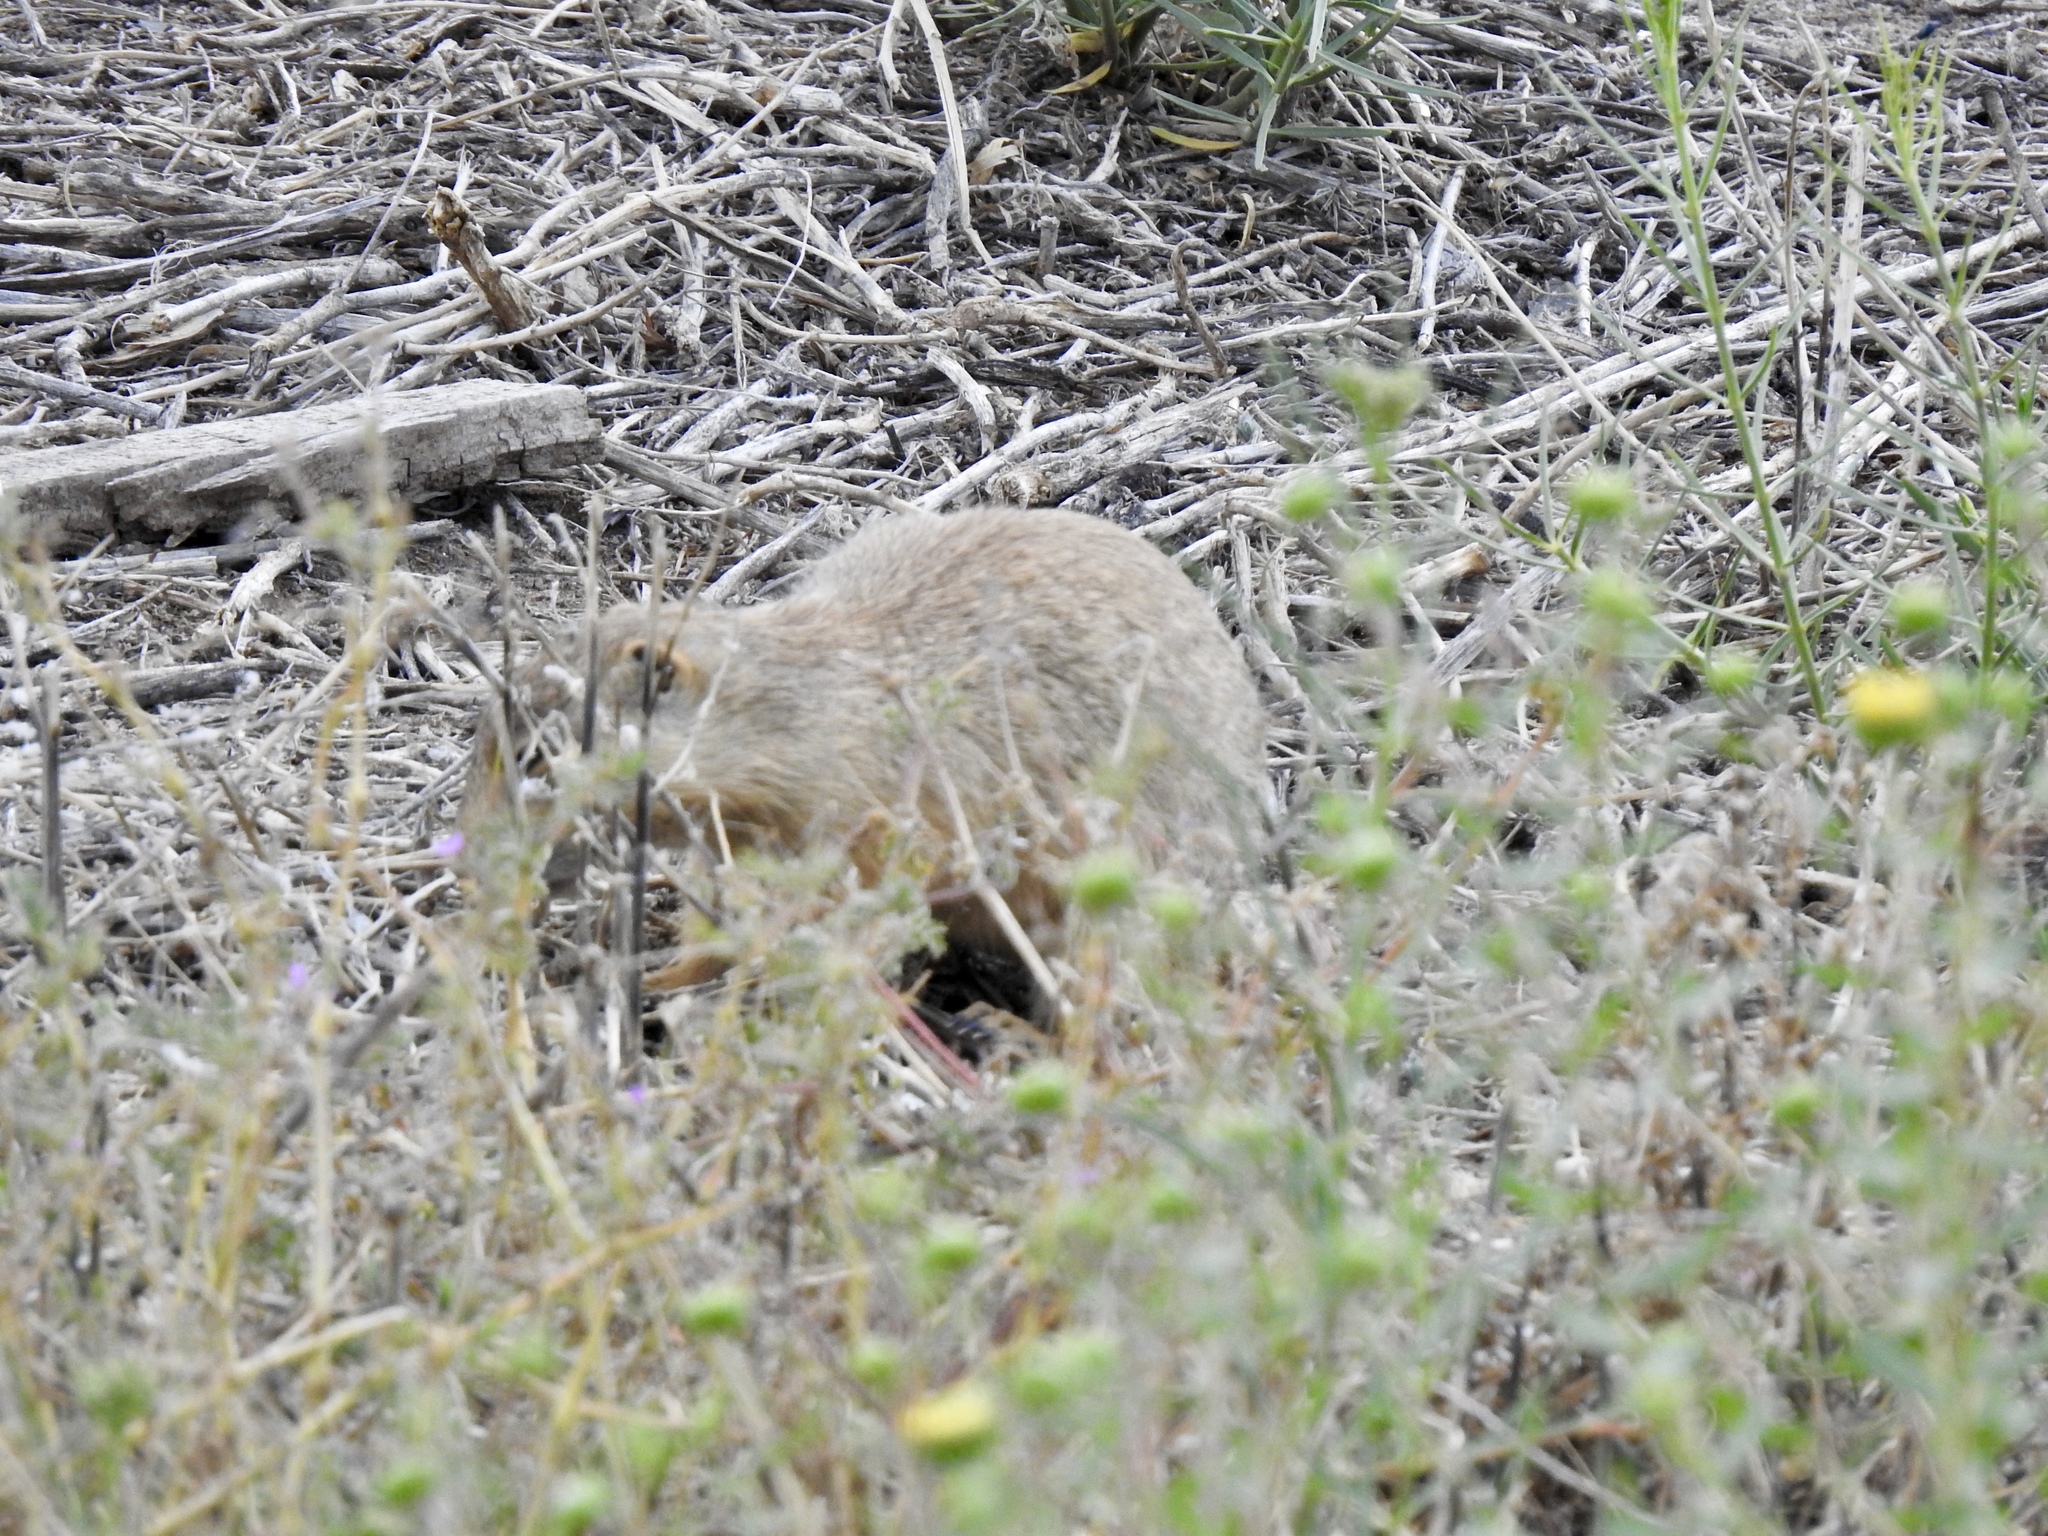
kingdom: Animalia
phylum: Chordata
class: Mammalia
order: Rodentia
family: Sciuridae
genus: Cynomys
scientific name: Cynomys gunnisoni
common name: Gunnison's prairie dog
